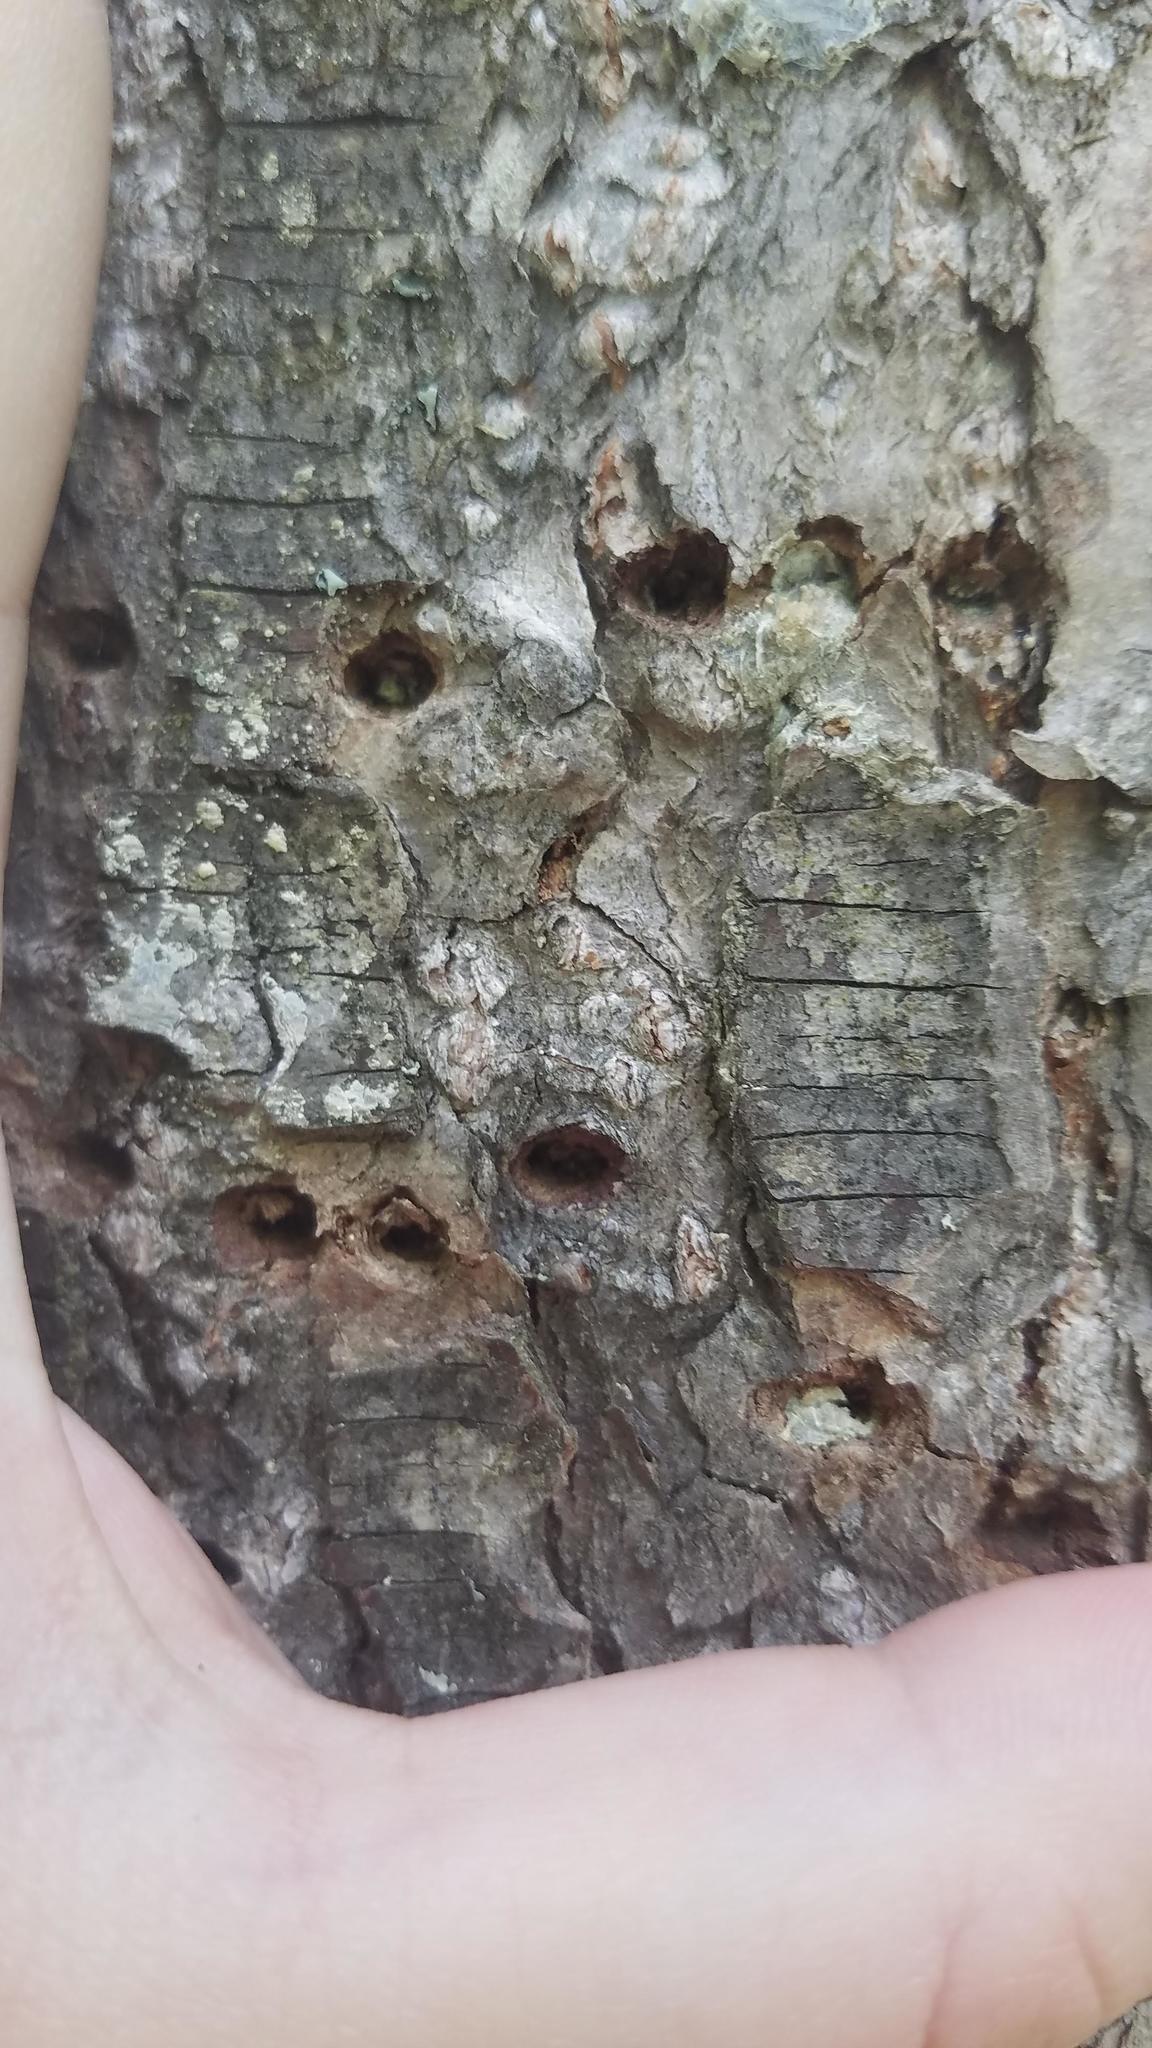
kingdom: Animalia
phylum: Chordata
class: Aves
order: Piciformes
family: Picidae
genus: Sphyrapicus
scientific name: Sphyrapicus varius
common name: Yellow-bellied sapsucker
